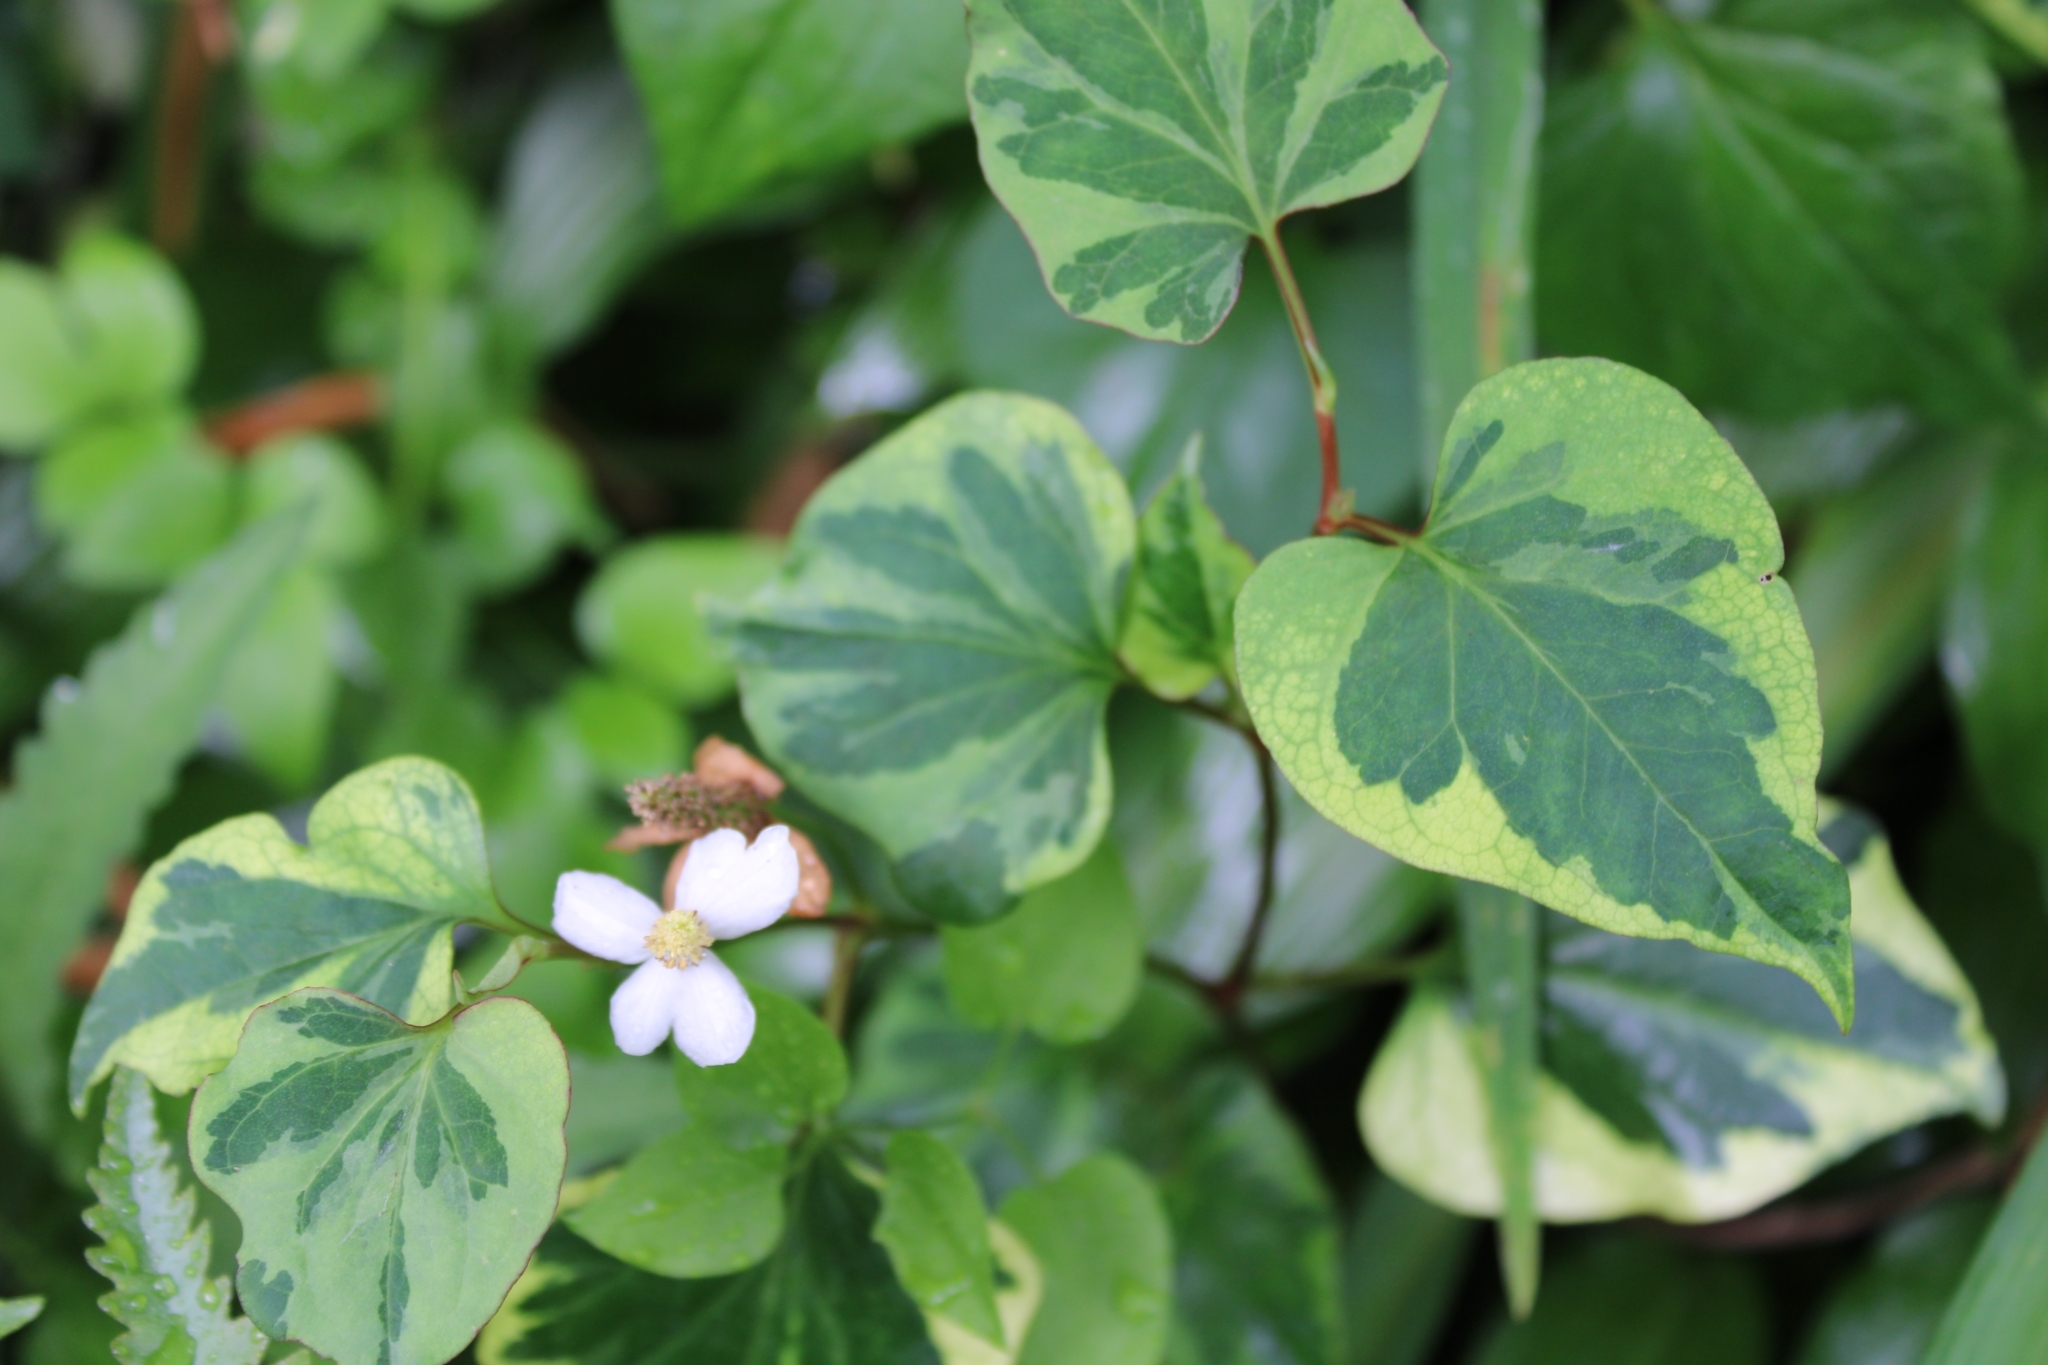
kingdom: Plantae
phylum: Tracheophyta
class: Magnoliopsida
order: Piperales
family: Saururaceae
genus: Houttuynia
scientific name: Houttuynia cordata
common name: Chameleon
